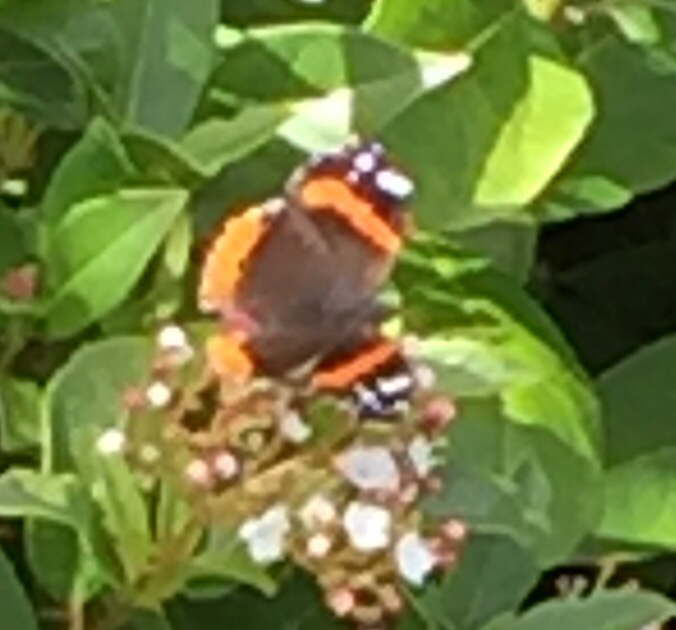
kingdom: Animalia
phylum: Arthropoda
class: Insecta
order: Lepidoptera
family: Nymphalidae
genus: Vanessa
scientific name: Vanessa atalanta
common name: Red admiral
